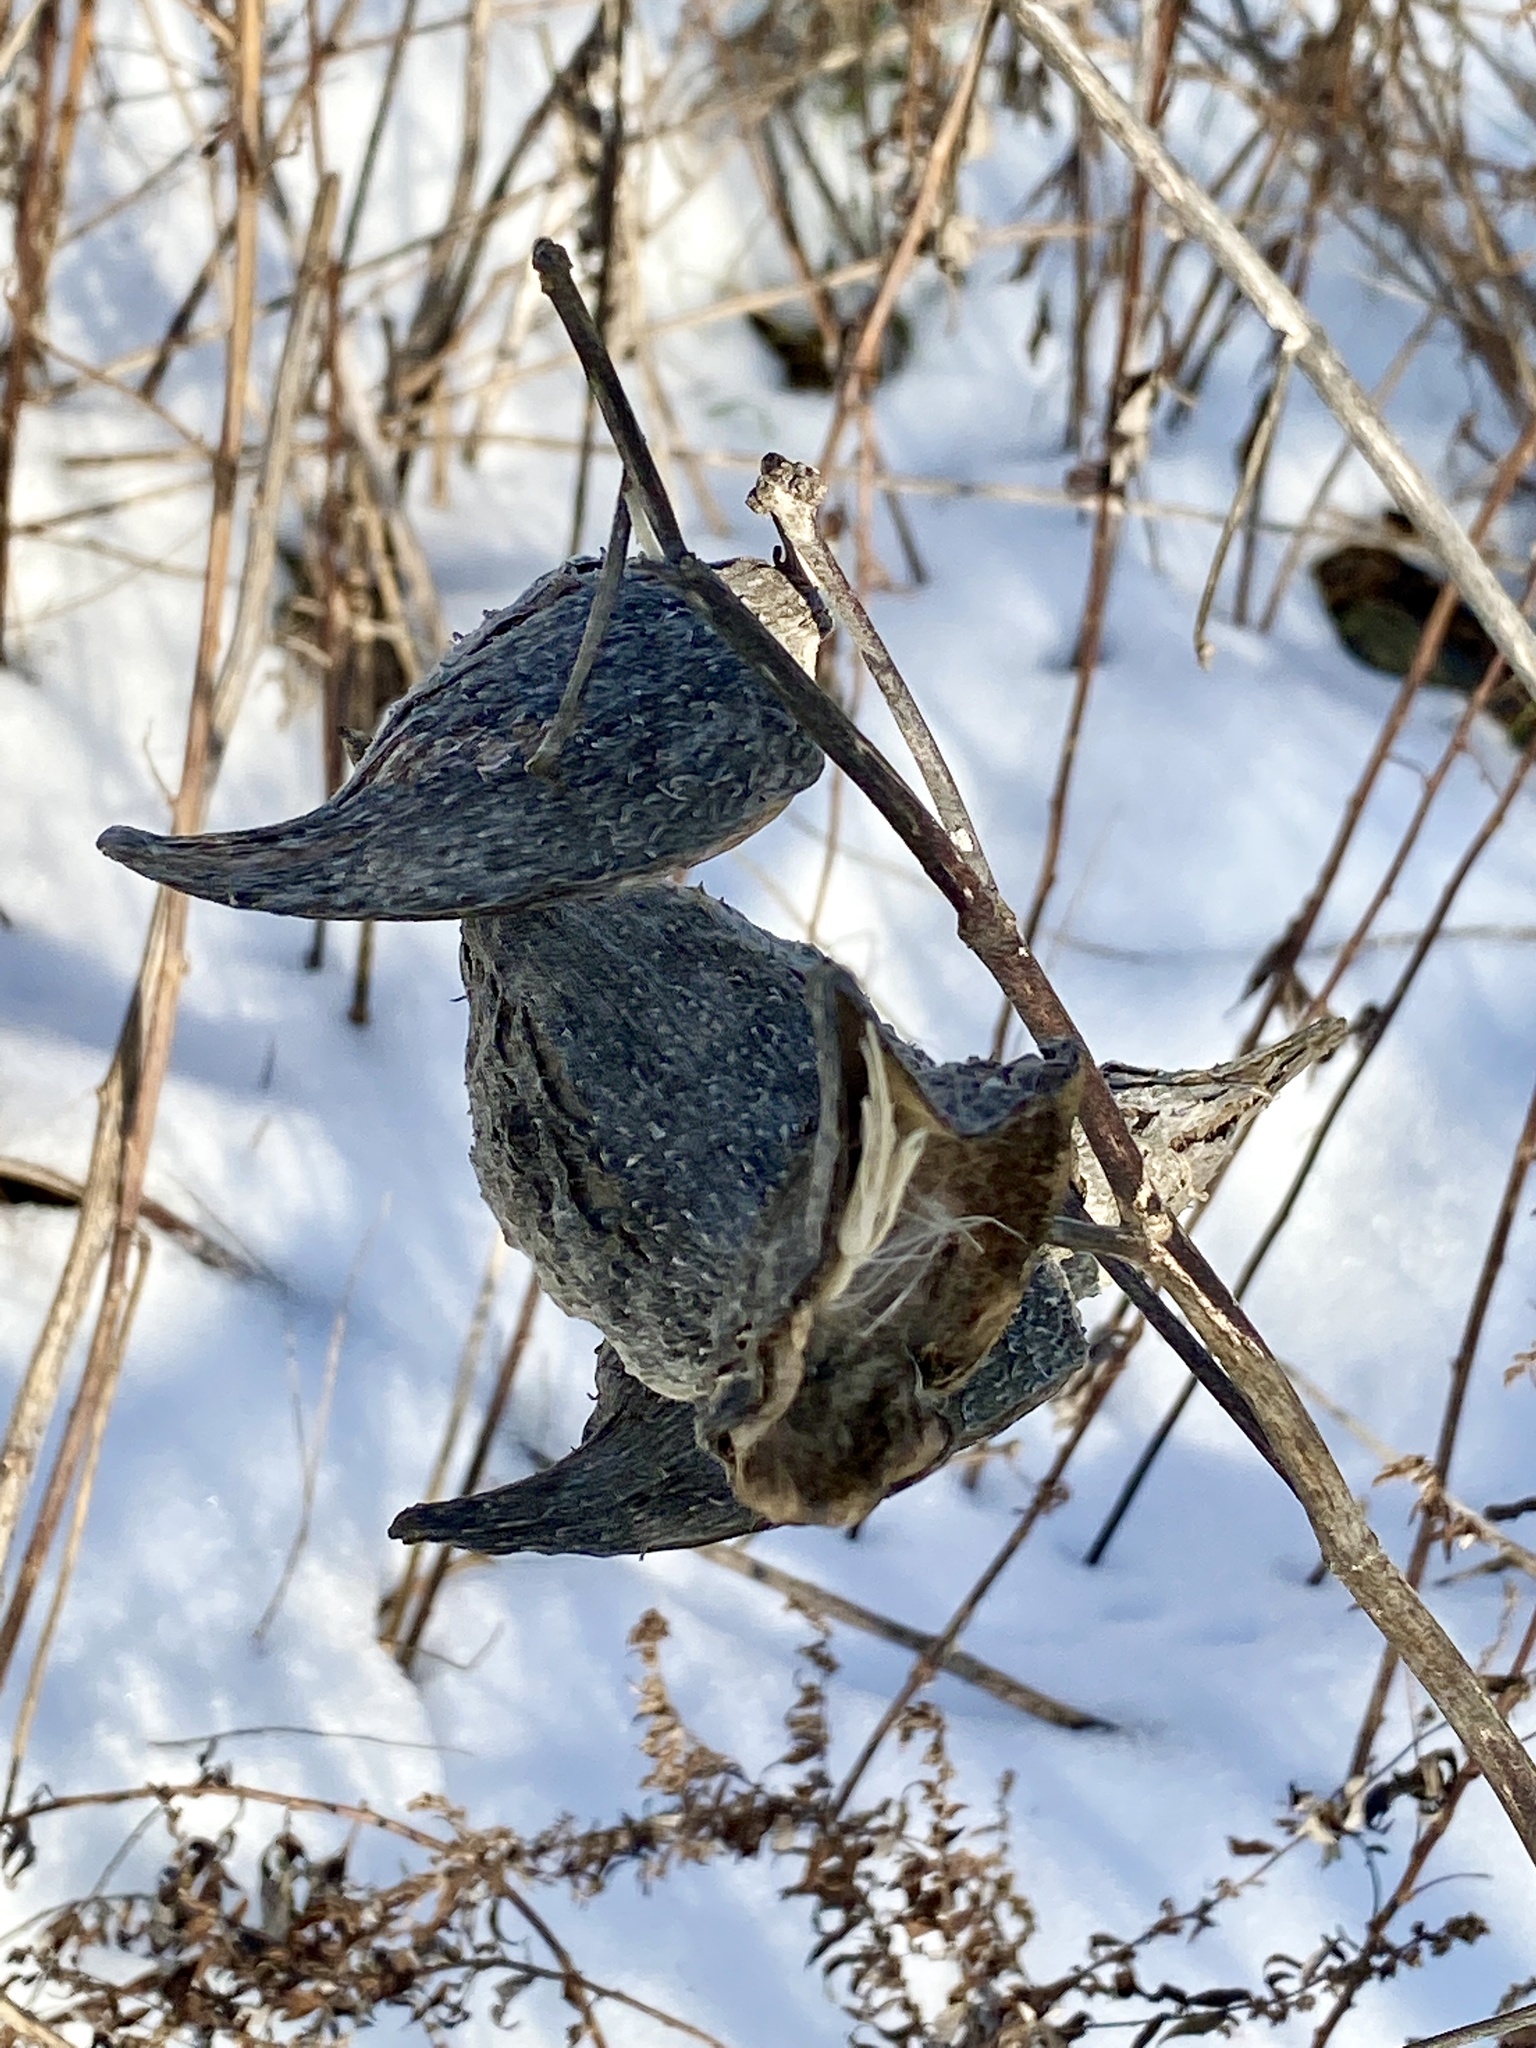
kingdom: Plantae
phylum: Tracheophyta
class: Magnoliopsida
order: Gentianales
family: Apocynaceae
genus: Asclepias
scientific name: Asclepias syriaca
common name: Common milkweed
